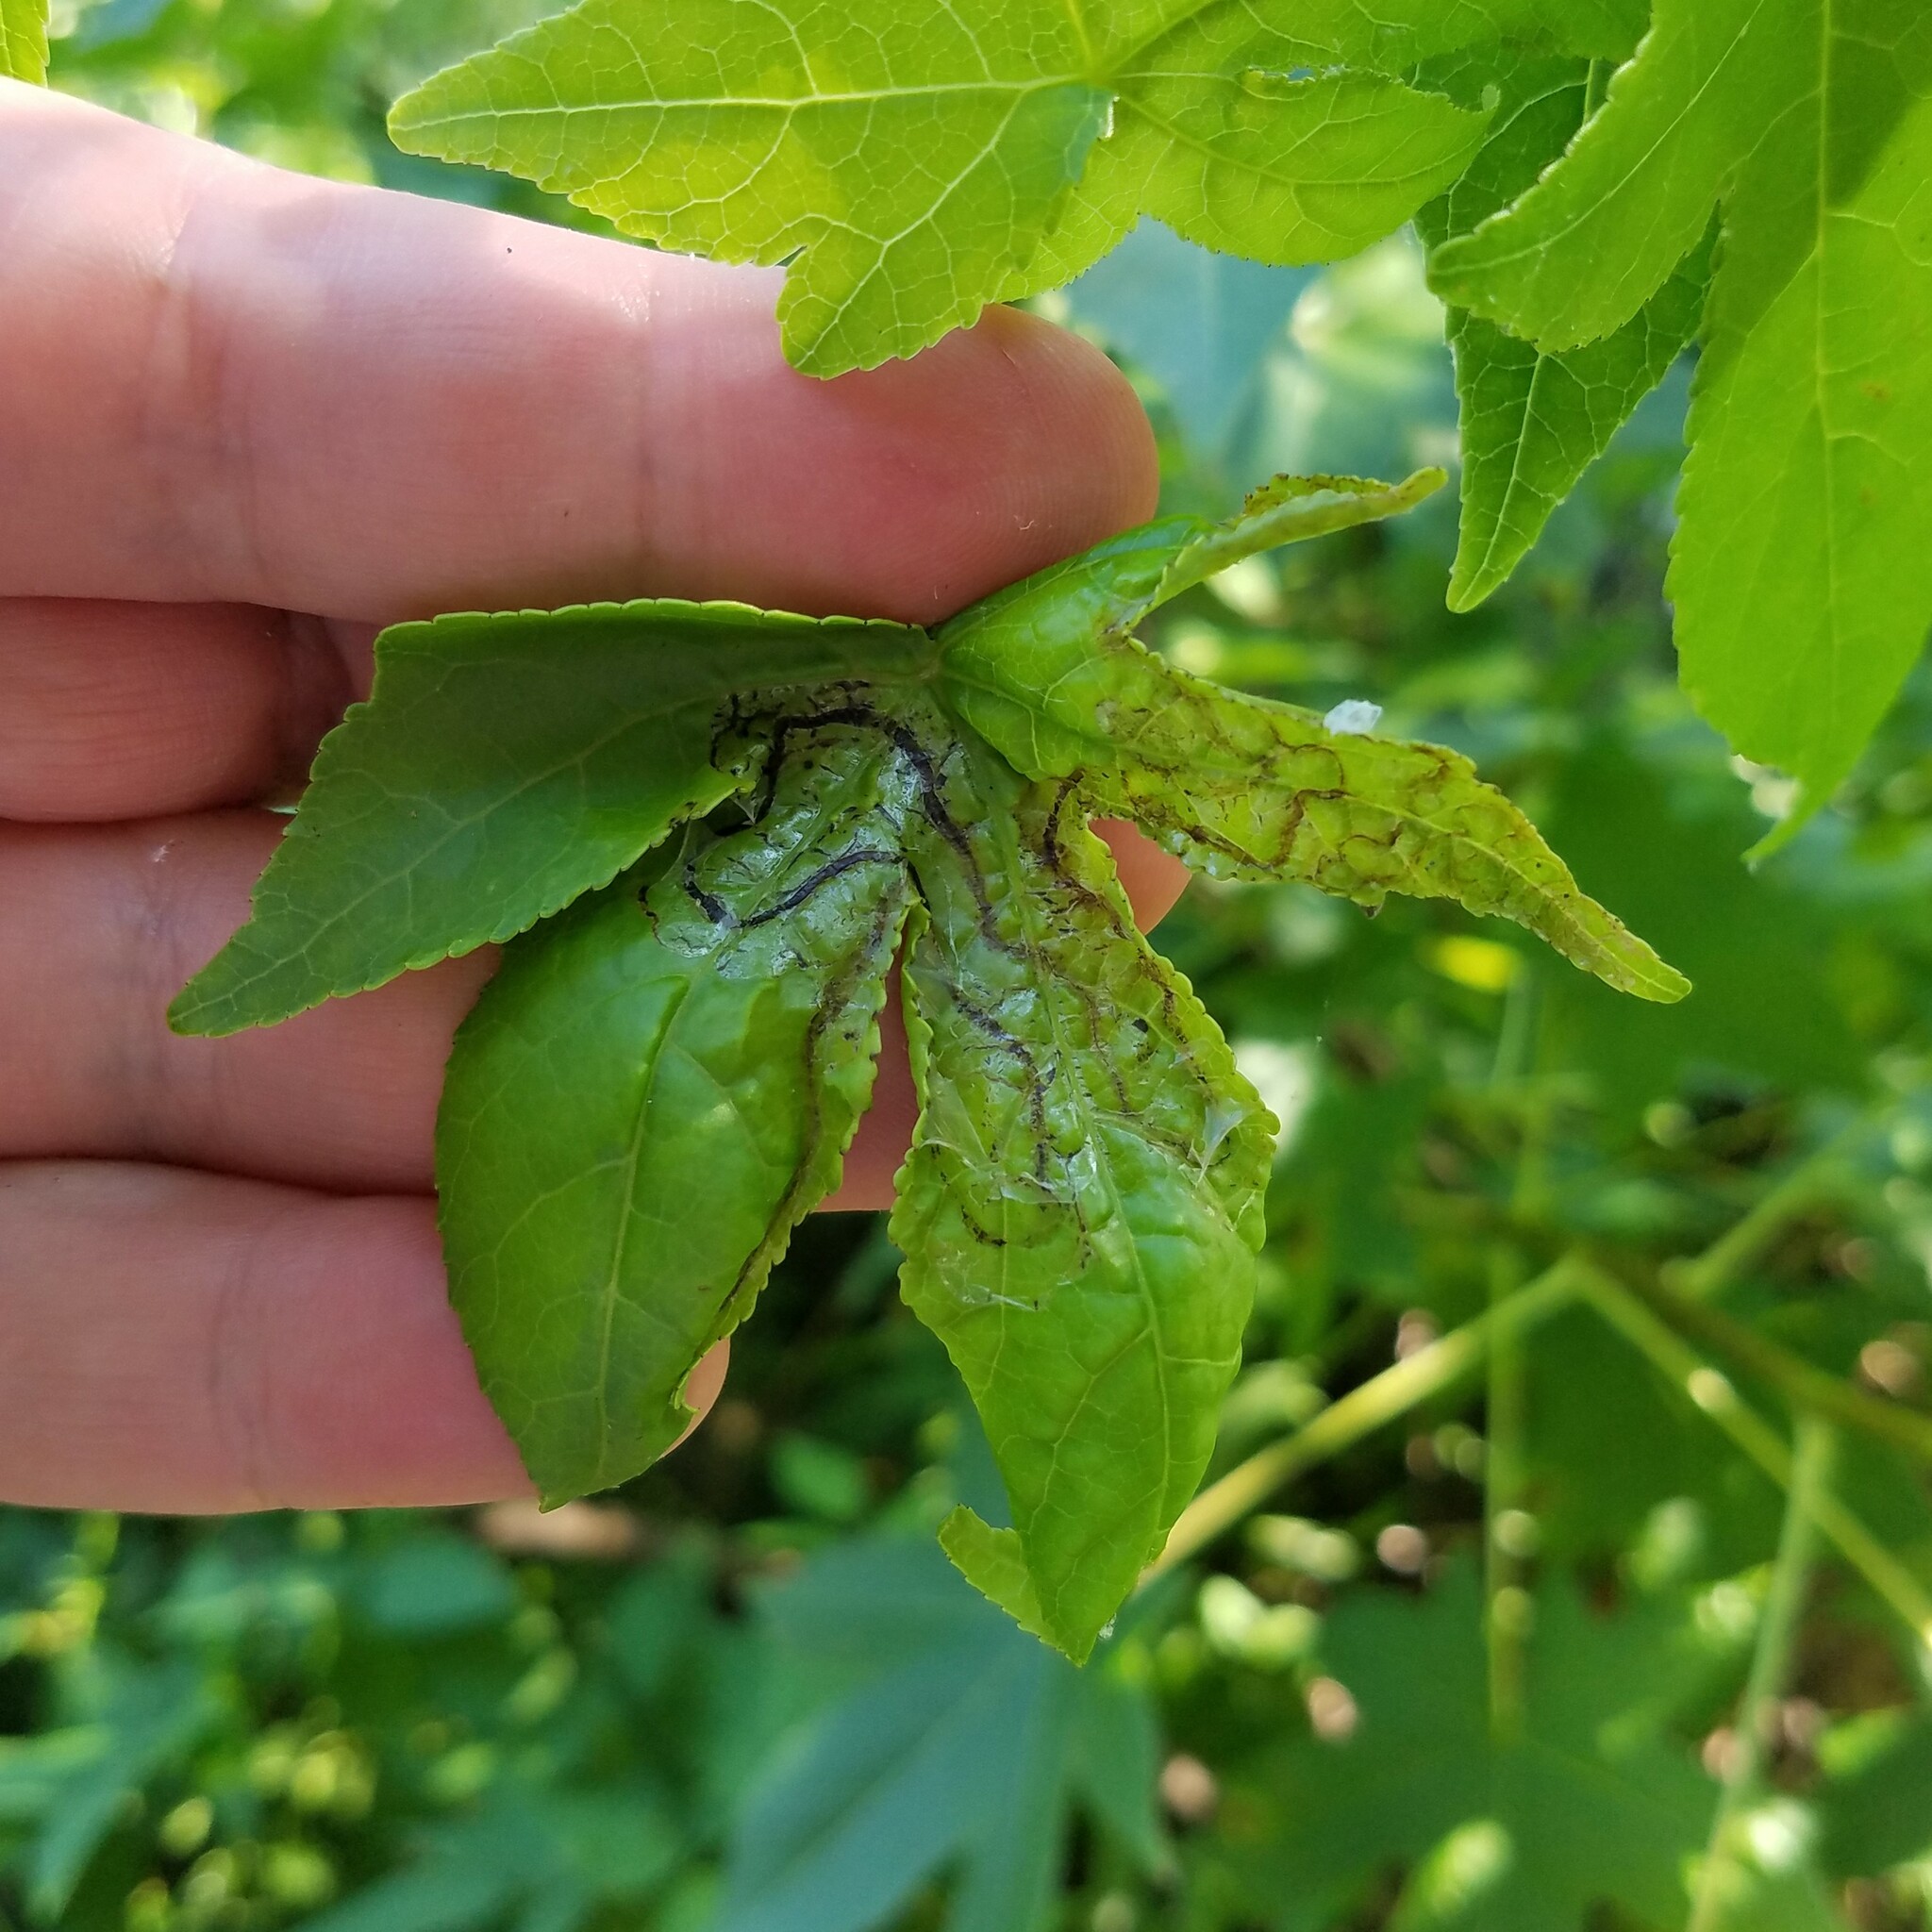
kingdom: Animalia
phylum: Arthropoda
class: Insecta
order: Lepidoptera
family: Gracillariidae
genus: Phyllocnistis
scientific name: Phyllocnistis liquidambarisella
